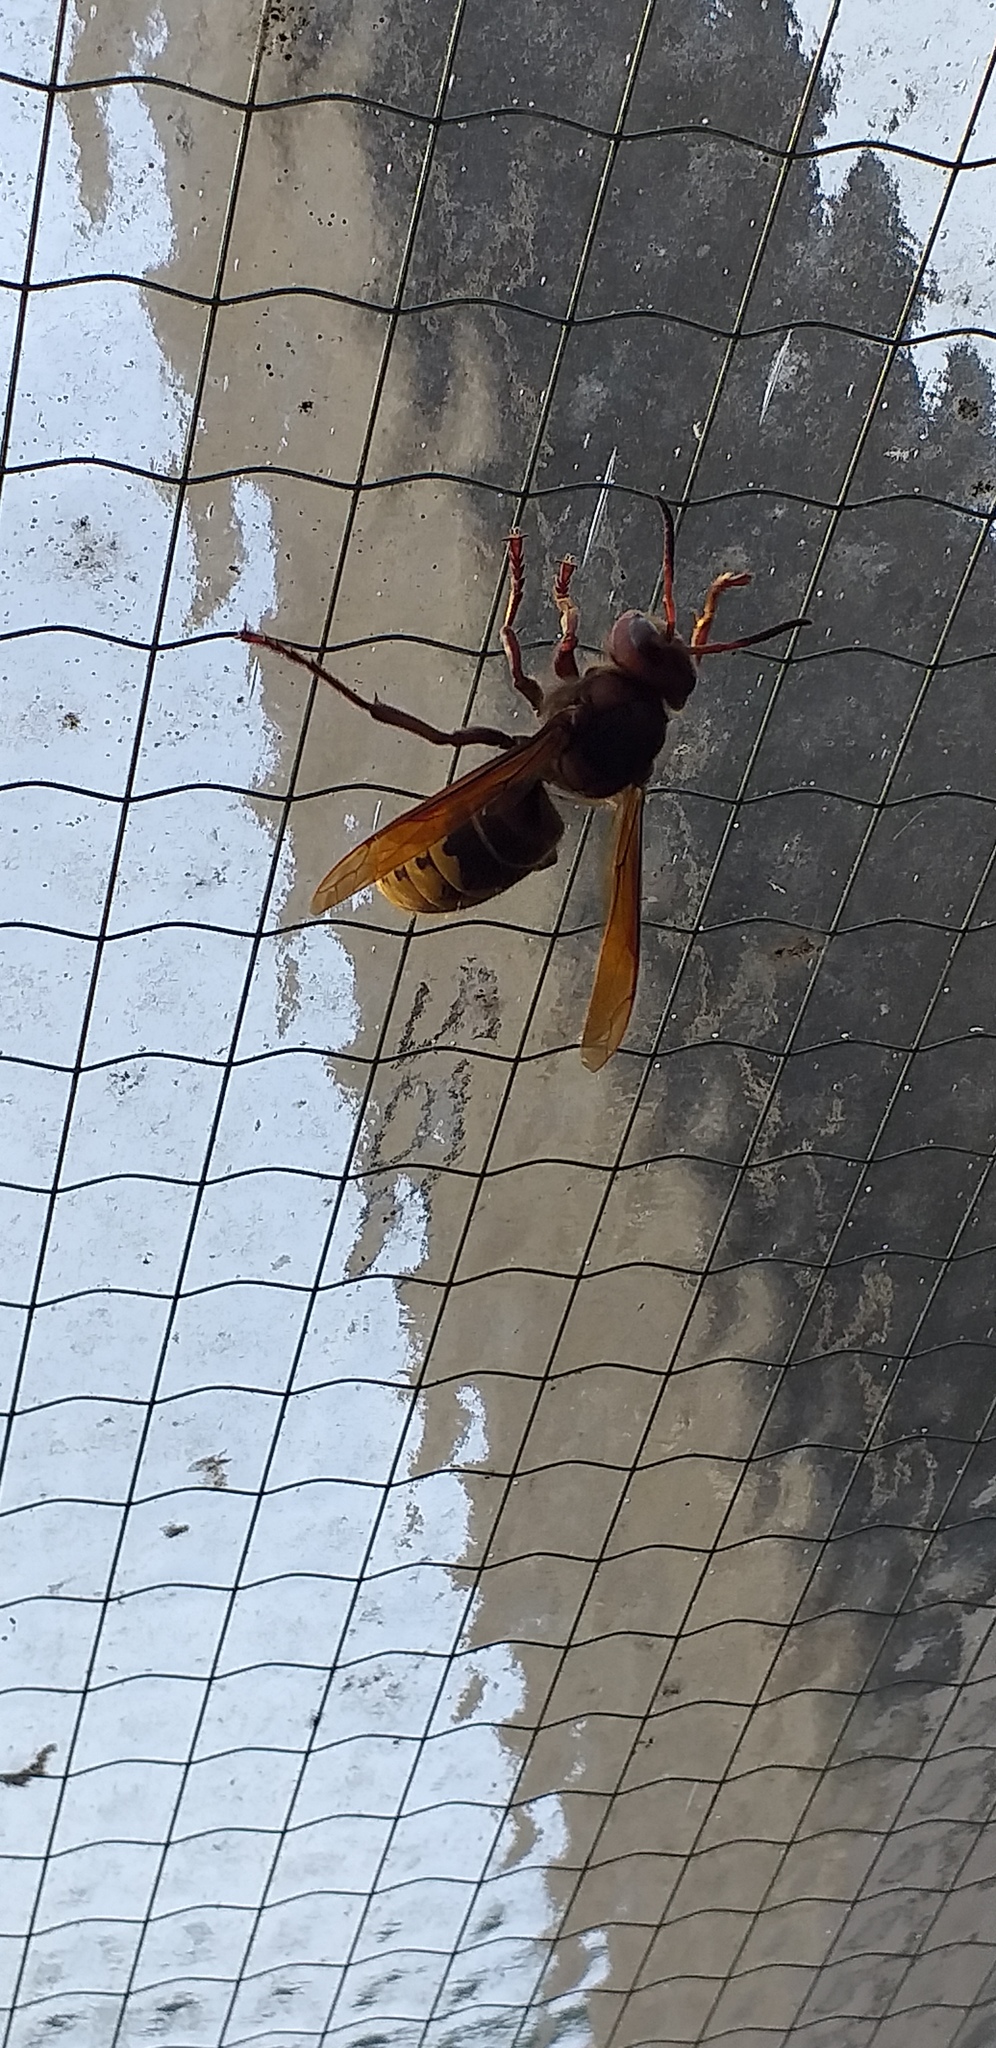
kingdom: Animalia
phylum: Arthropoda
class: Insecta
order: Hymenoptera
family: Vespidae
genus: Vespa
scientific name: Vespa crabro
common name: Hornet
